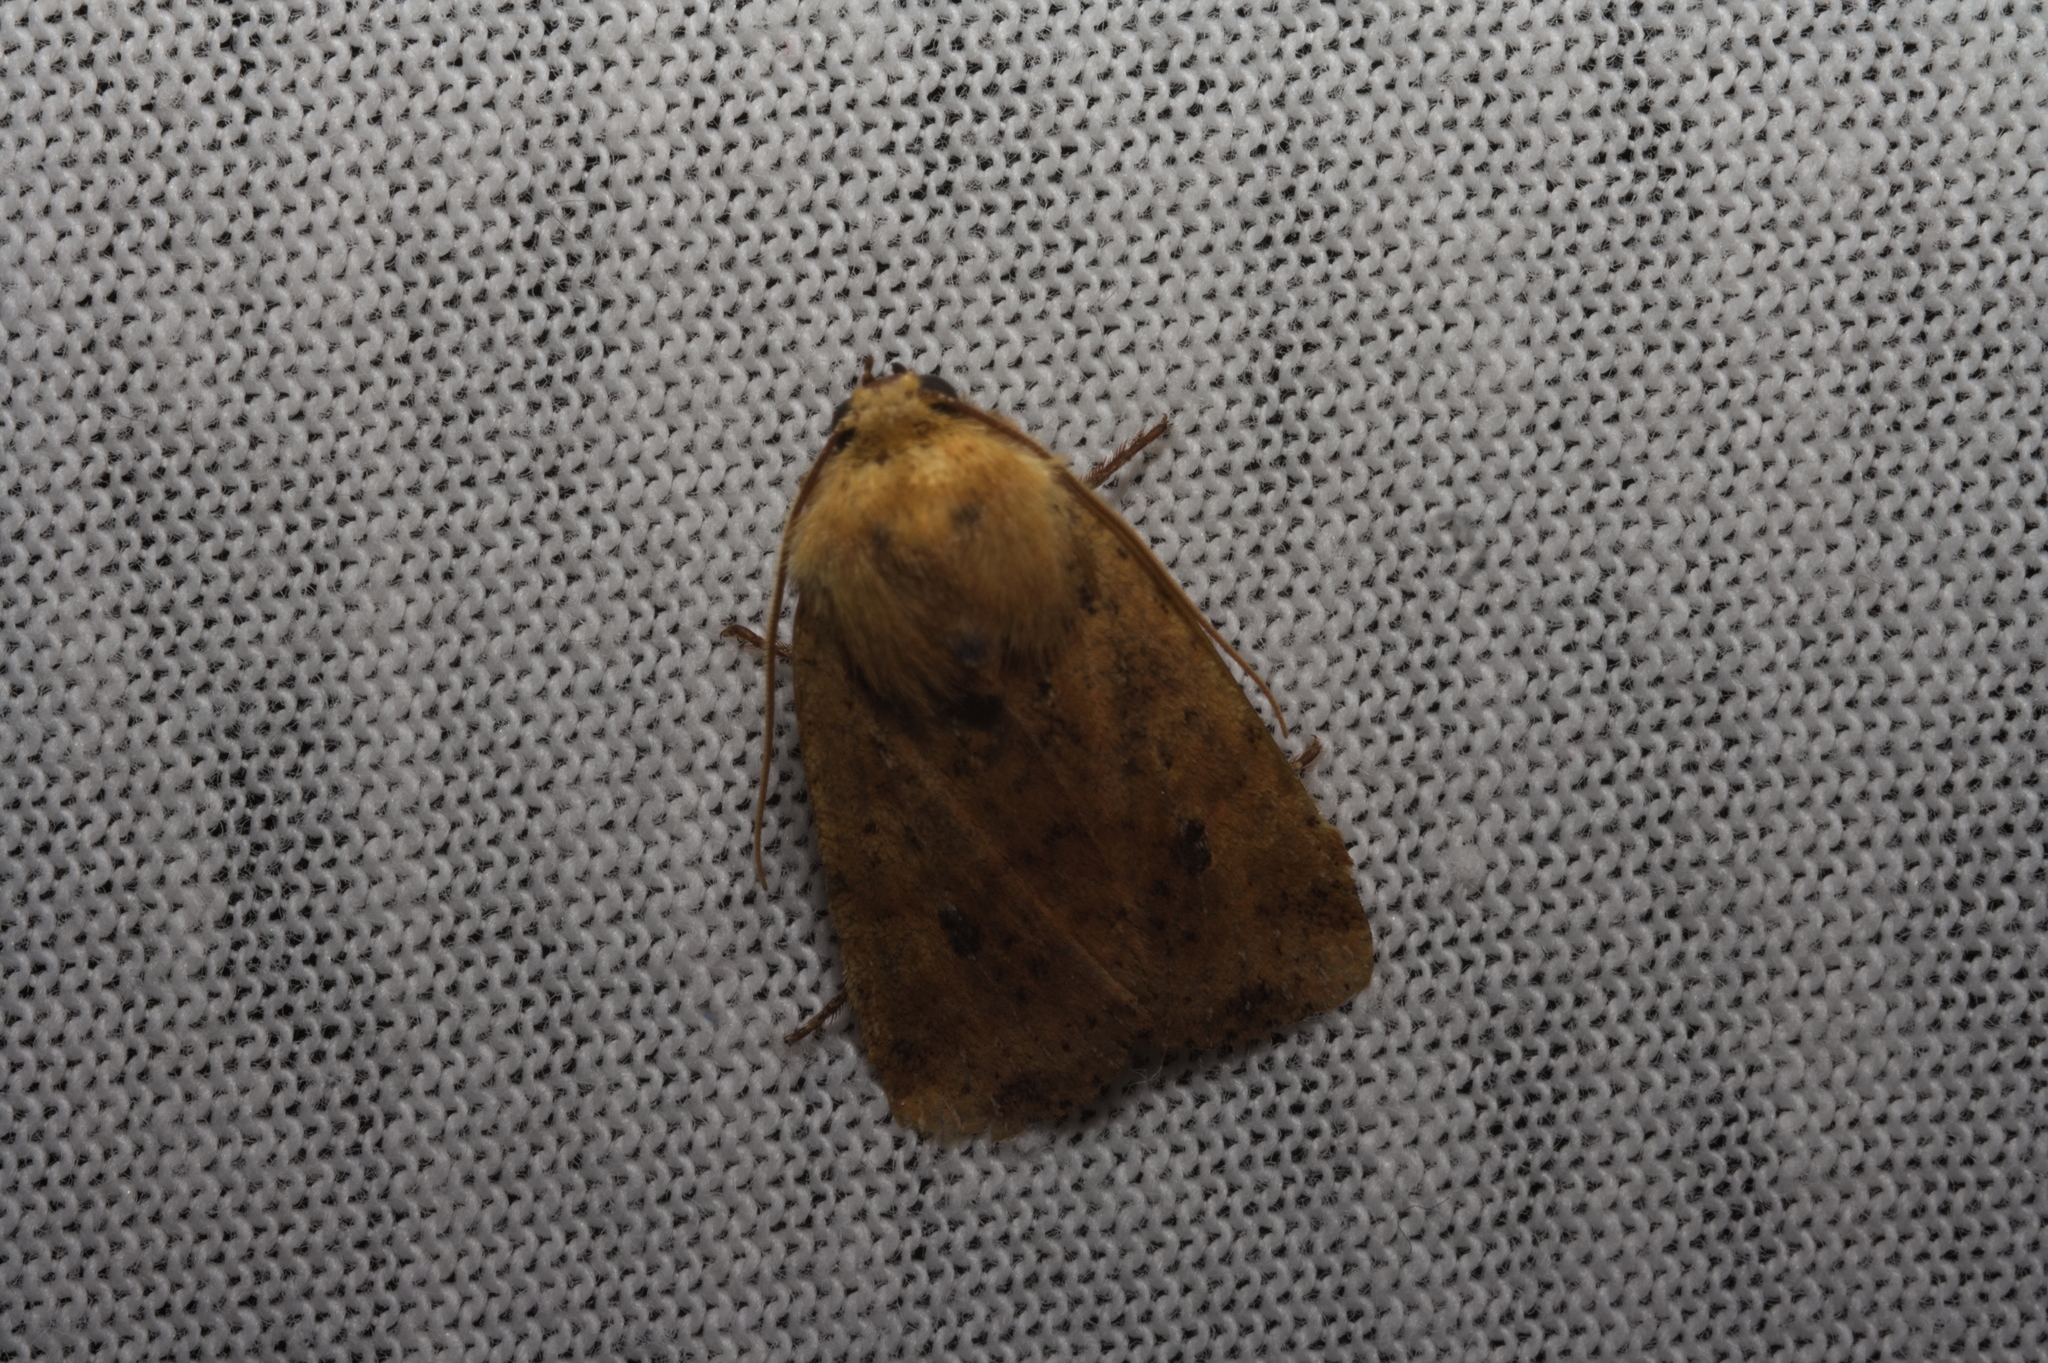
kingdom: Animalia
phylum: Arthropoda
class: Insecta
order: Lepidoptera
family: Noctuidae
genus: Conistra
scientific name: Conistra rubiginea
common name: Dotted chestnut
